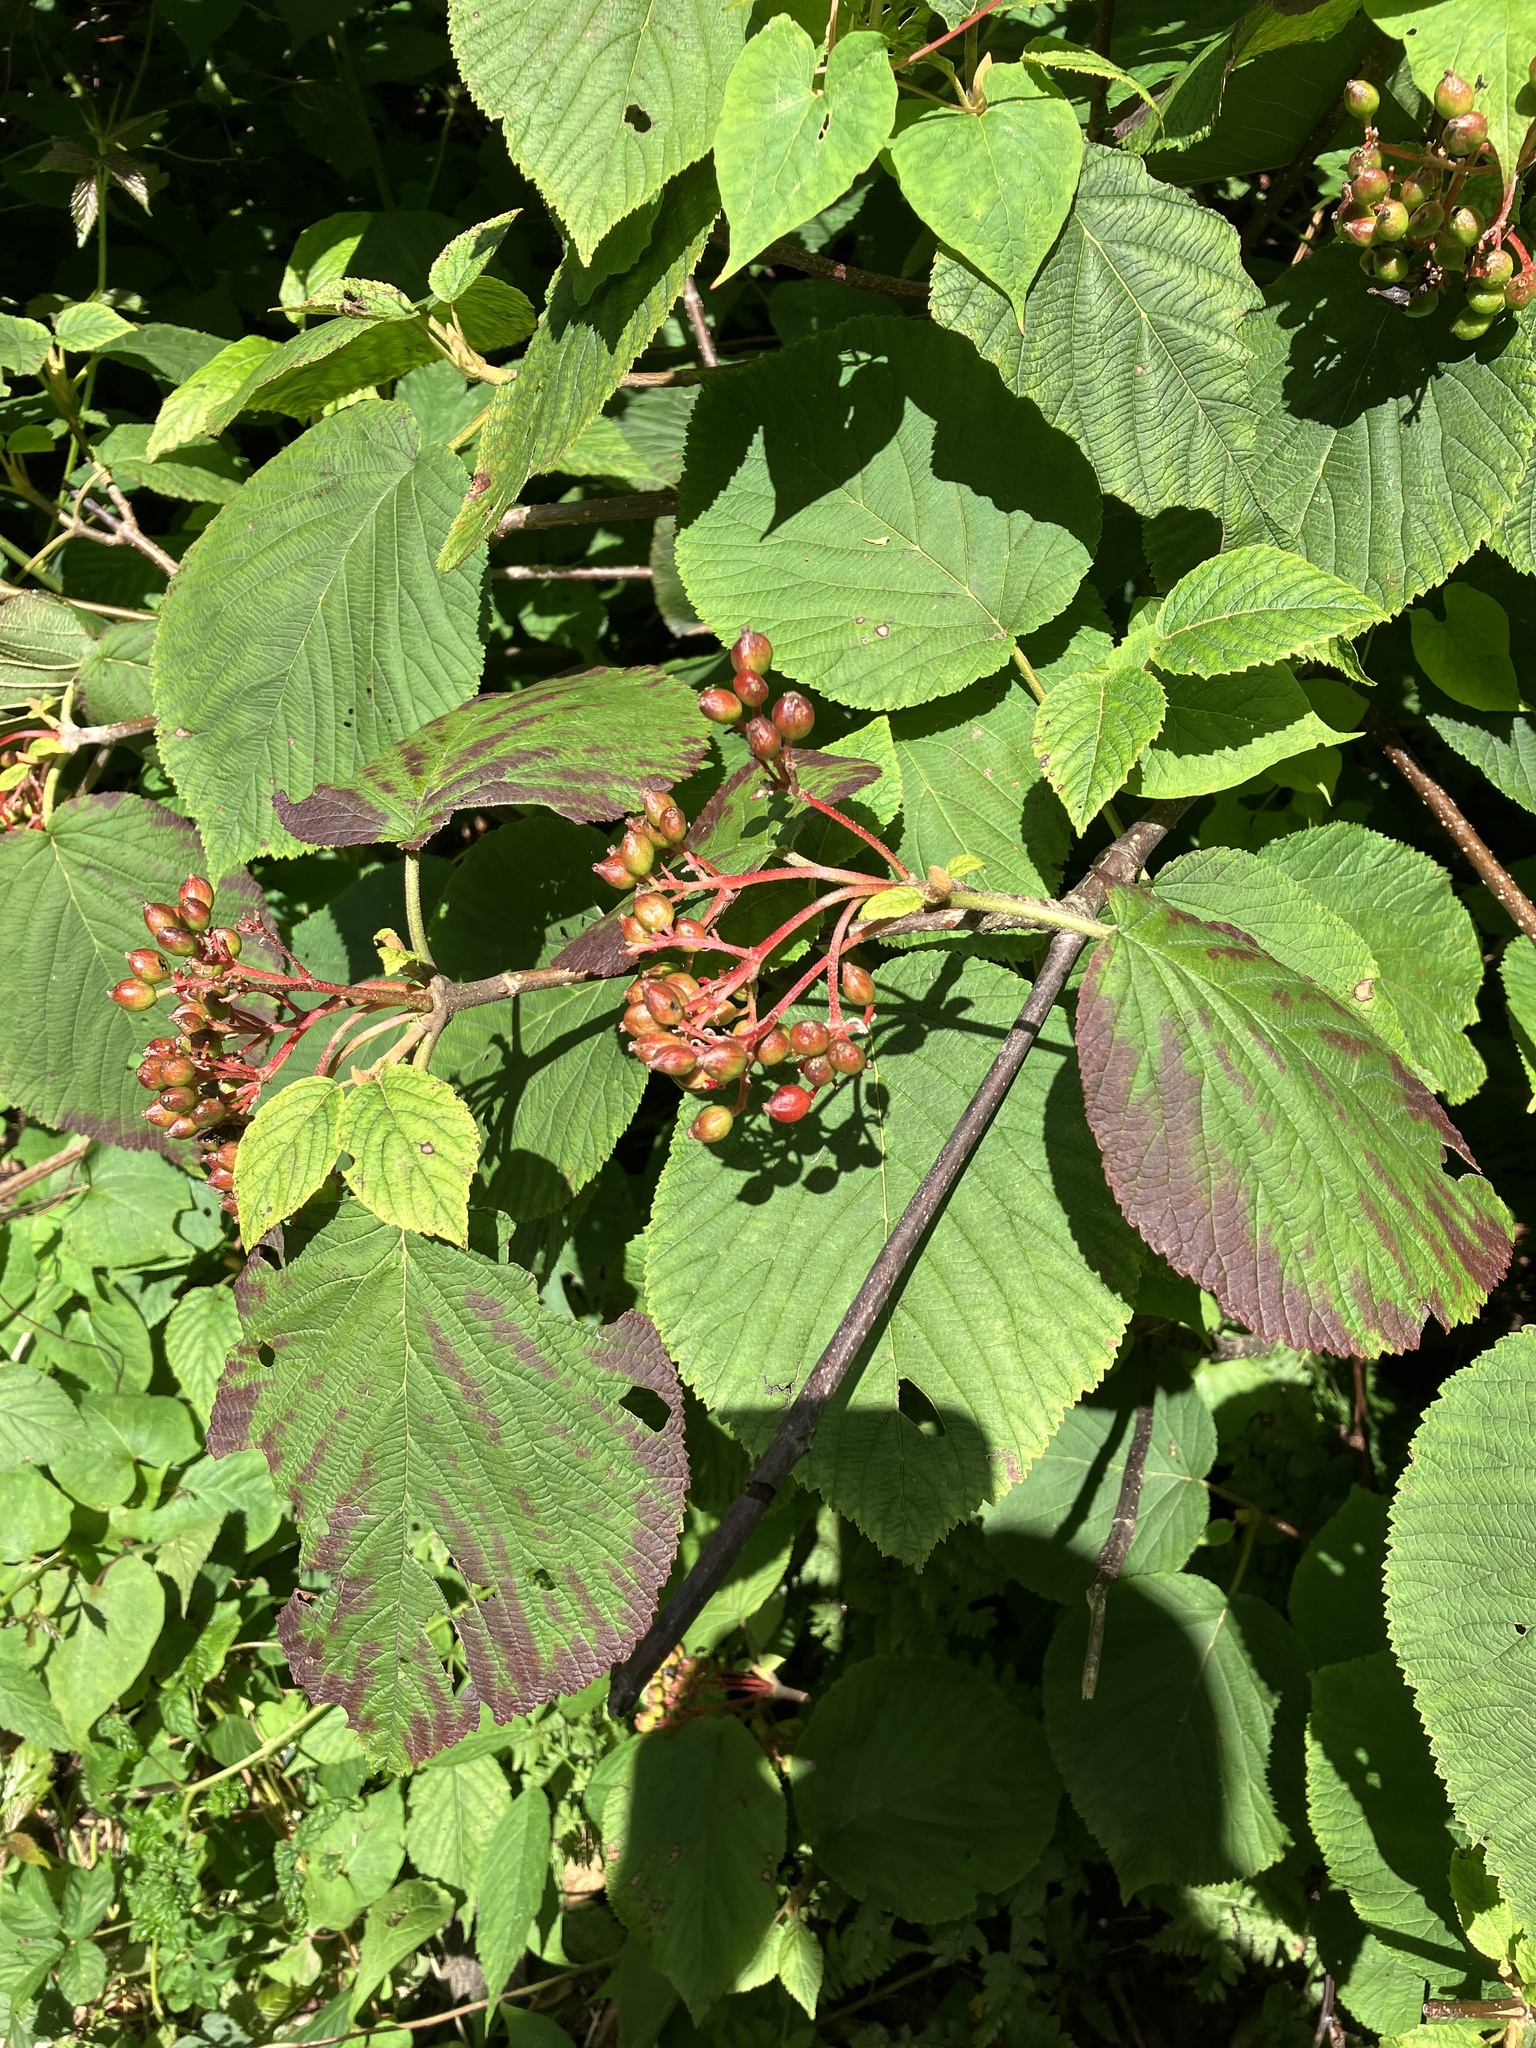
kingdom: Plantae
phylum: Tracheophyta
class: Magnoliopsida
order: Dipsacales
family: Viburnaceae
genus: Viburnum
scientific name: Viburnum lantanoides
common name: Hobblebush
